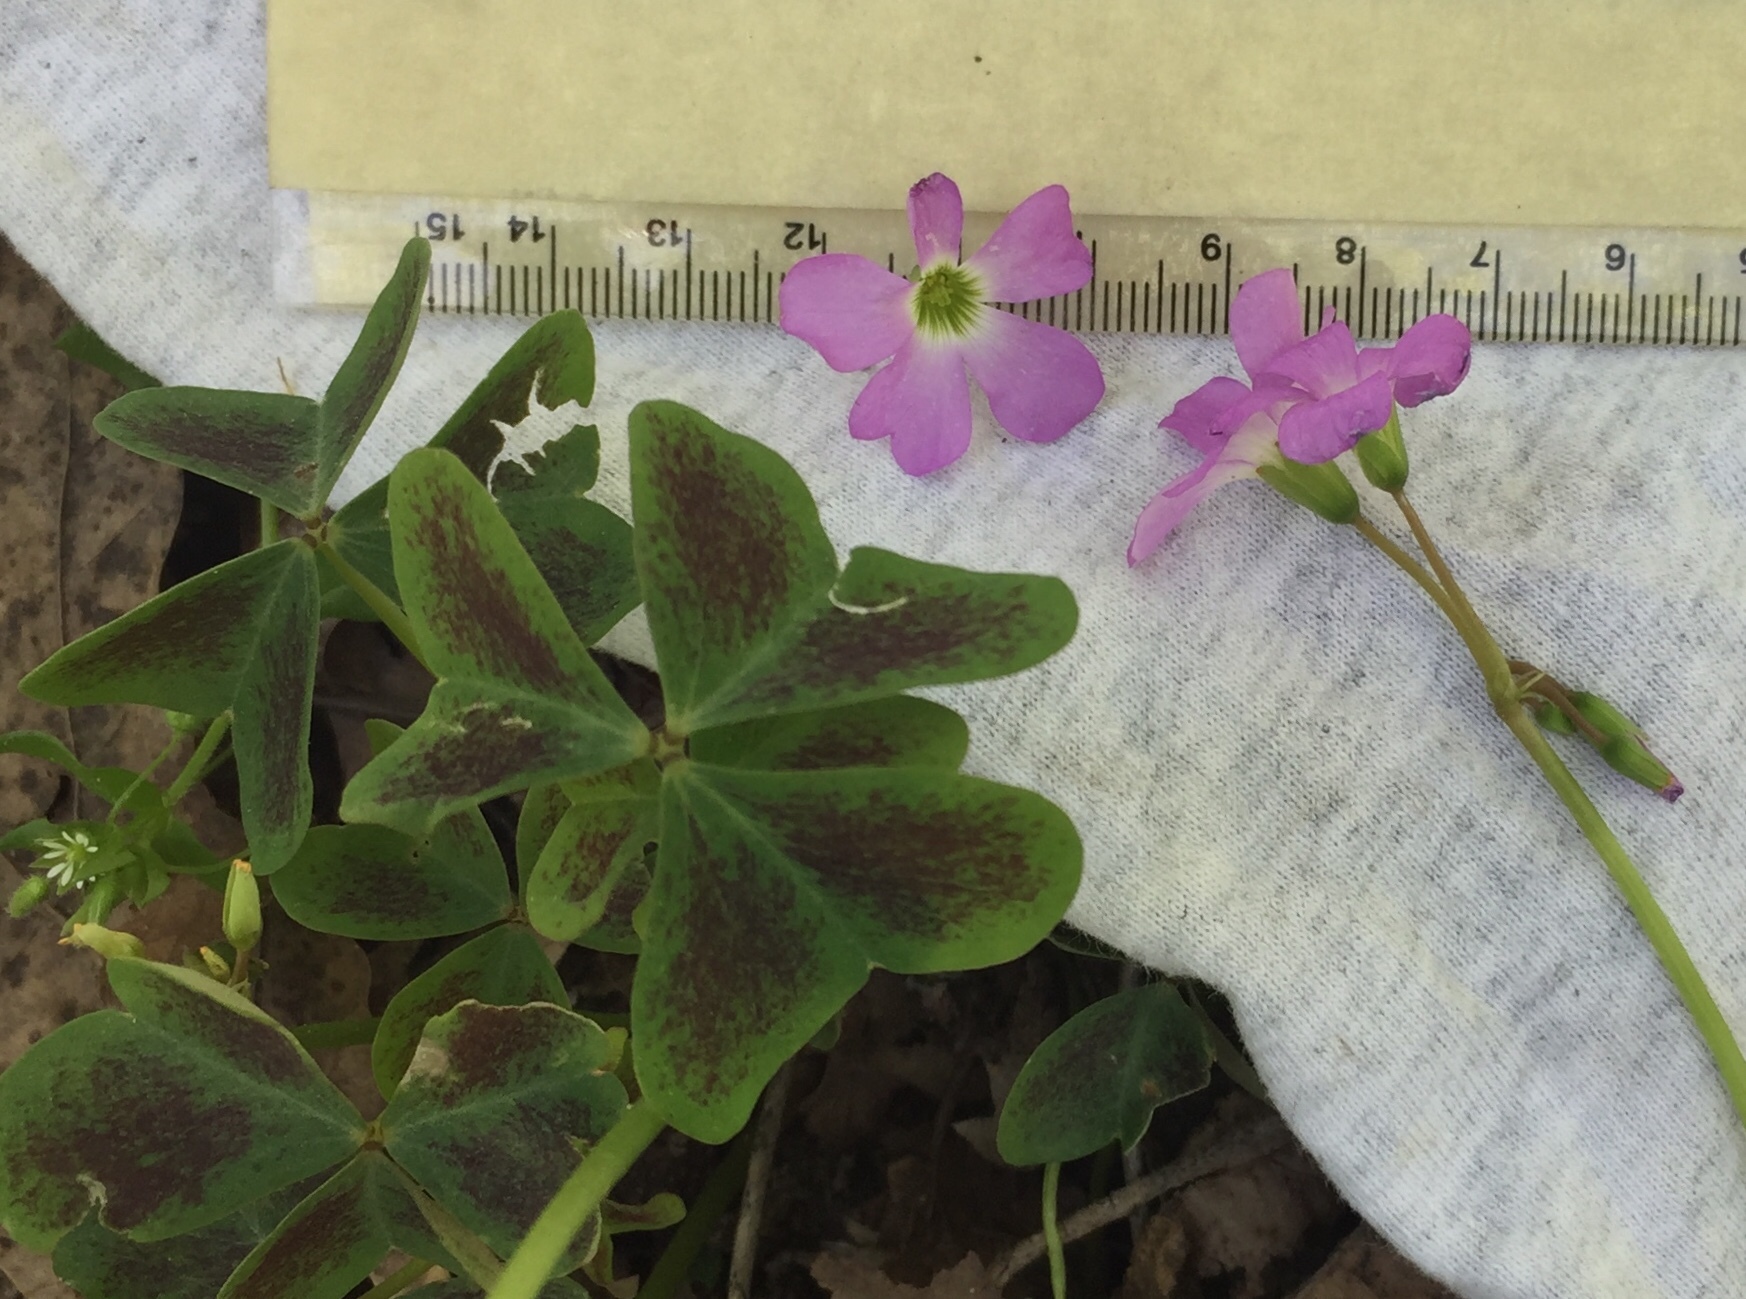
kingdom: Plantae
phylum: Tracheophyta
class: Magnoliopsida
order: Oxalidales
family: Oxalidaceae
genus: Oxalis
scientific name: Oxalis violacea
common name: Violet wood-sorrel
